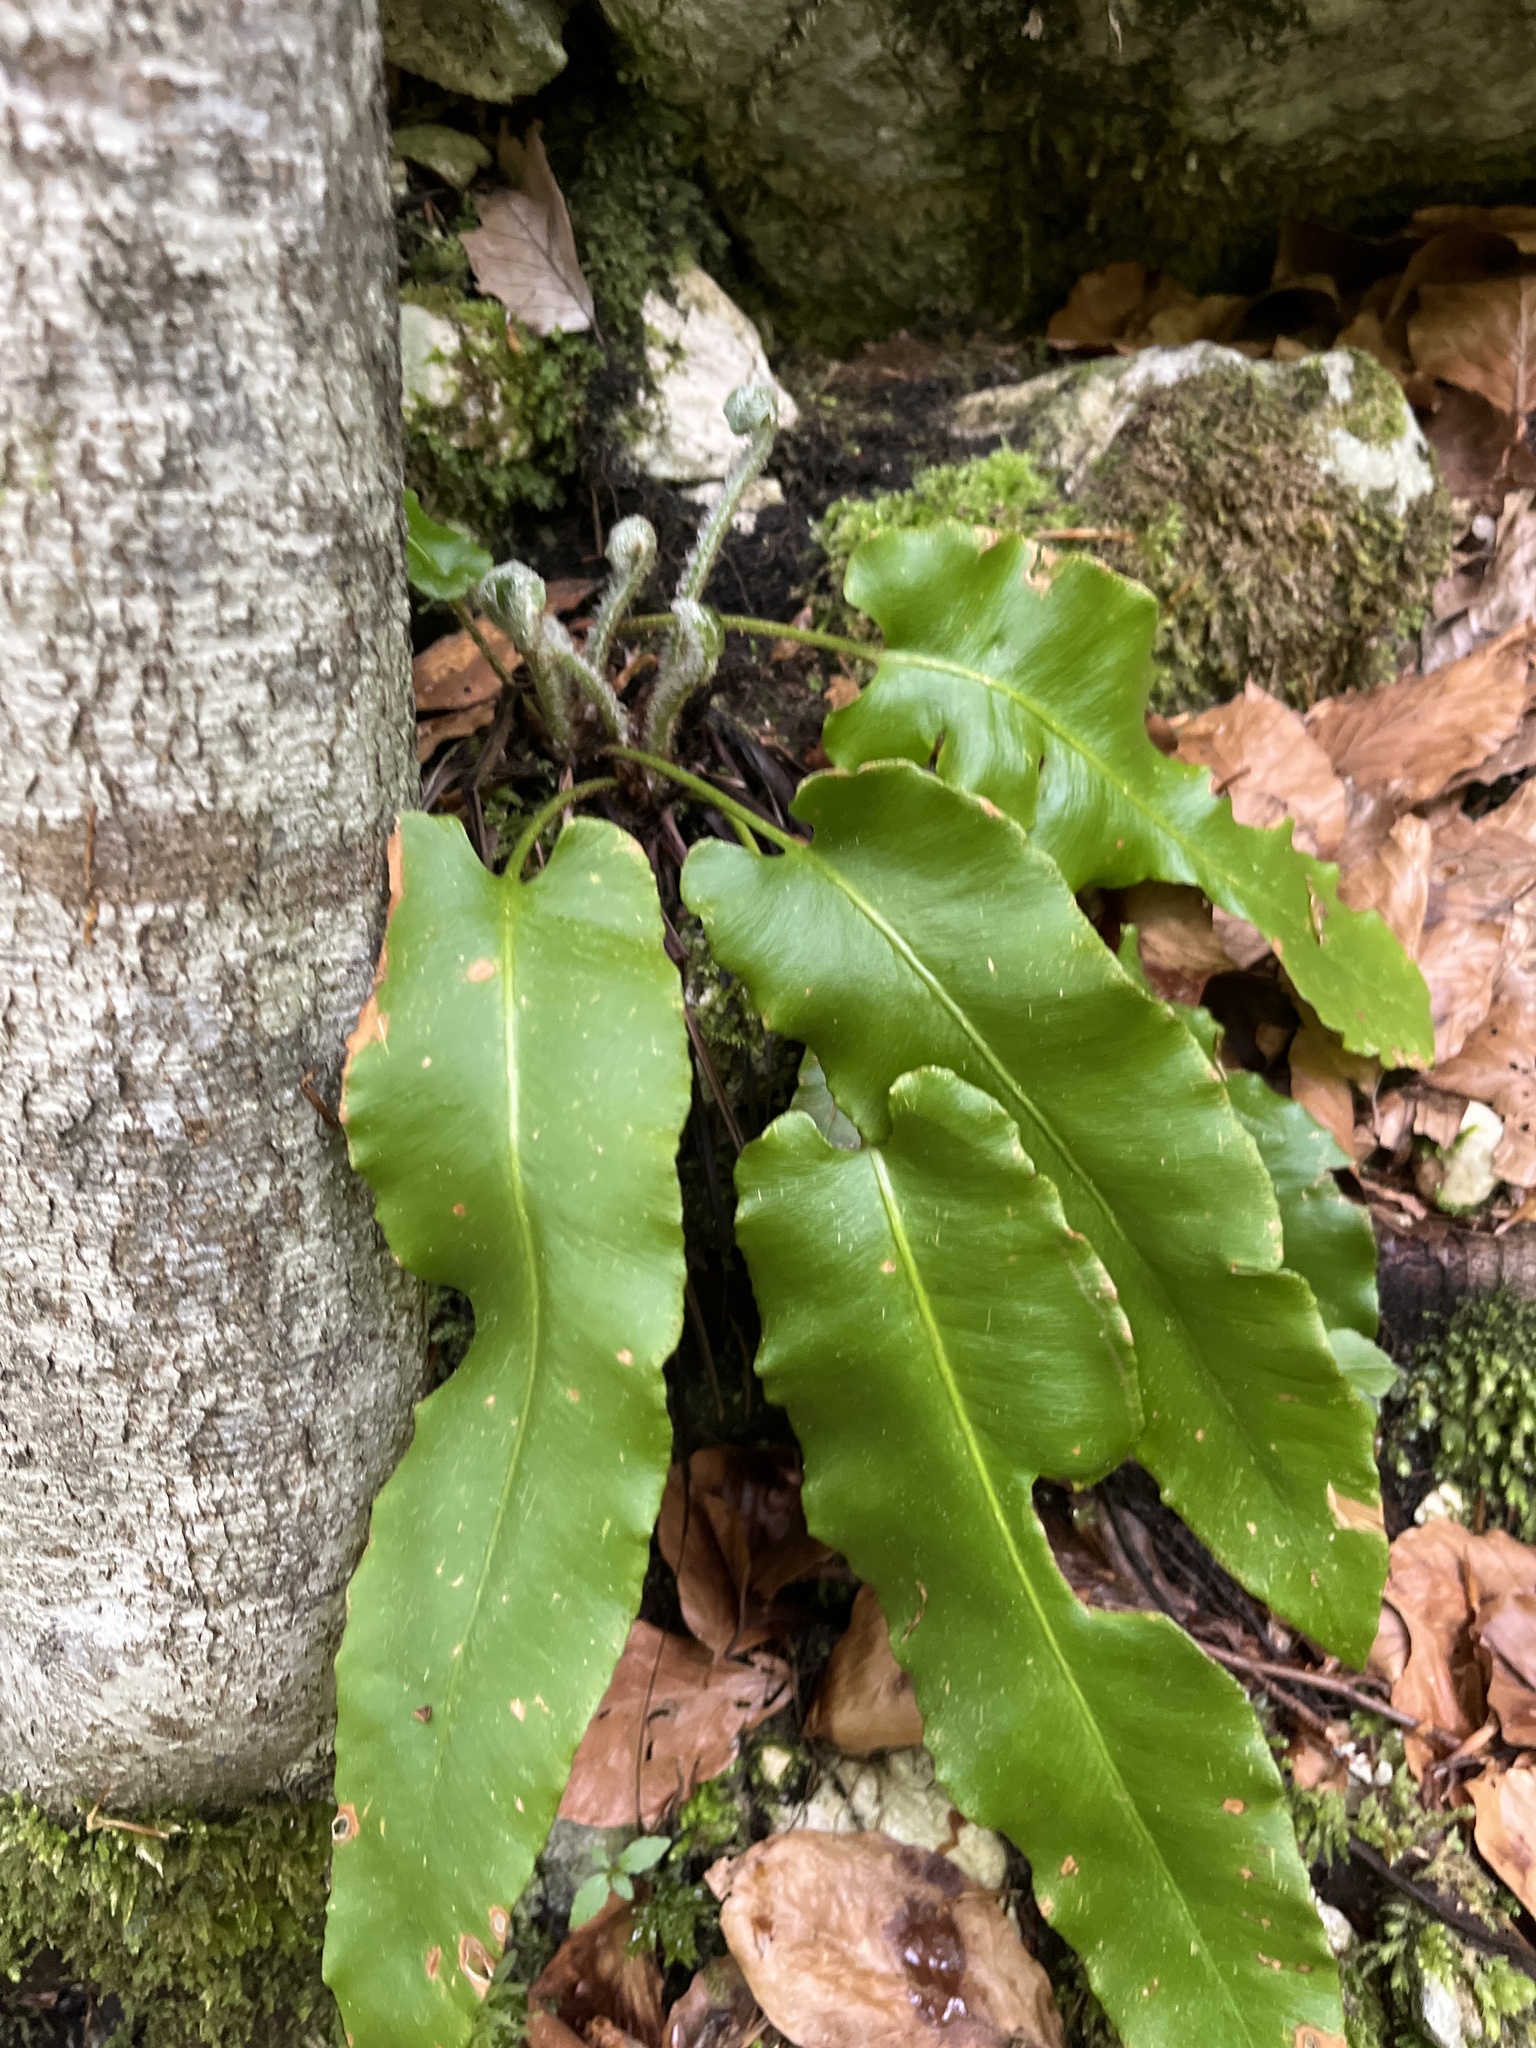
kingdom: Plantae
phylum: Tracheophyta
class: Polypodiopsida
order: Polypodiales
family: Aspleniaceae
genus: Asplenium
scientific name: Asplenium scolopendrium
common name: Hart's-tongue fern
